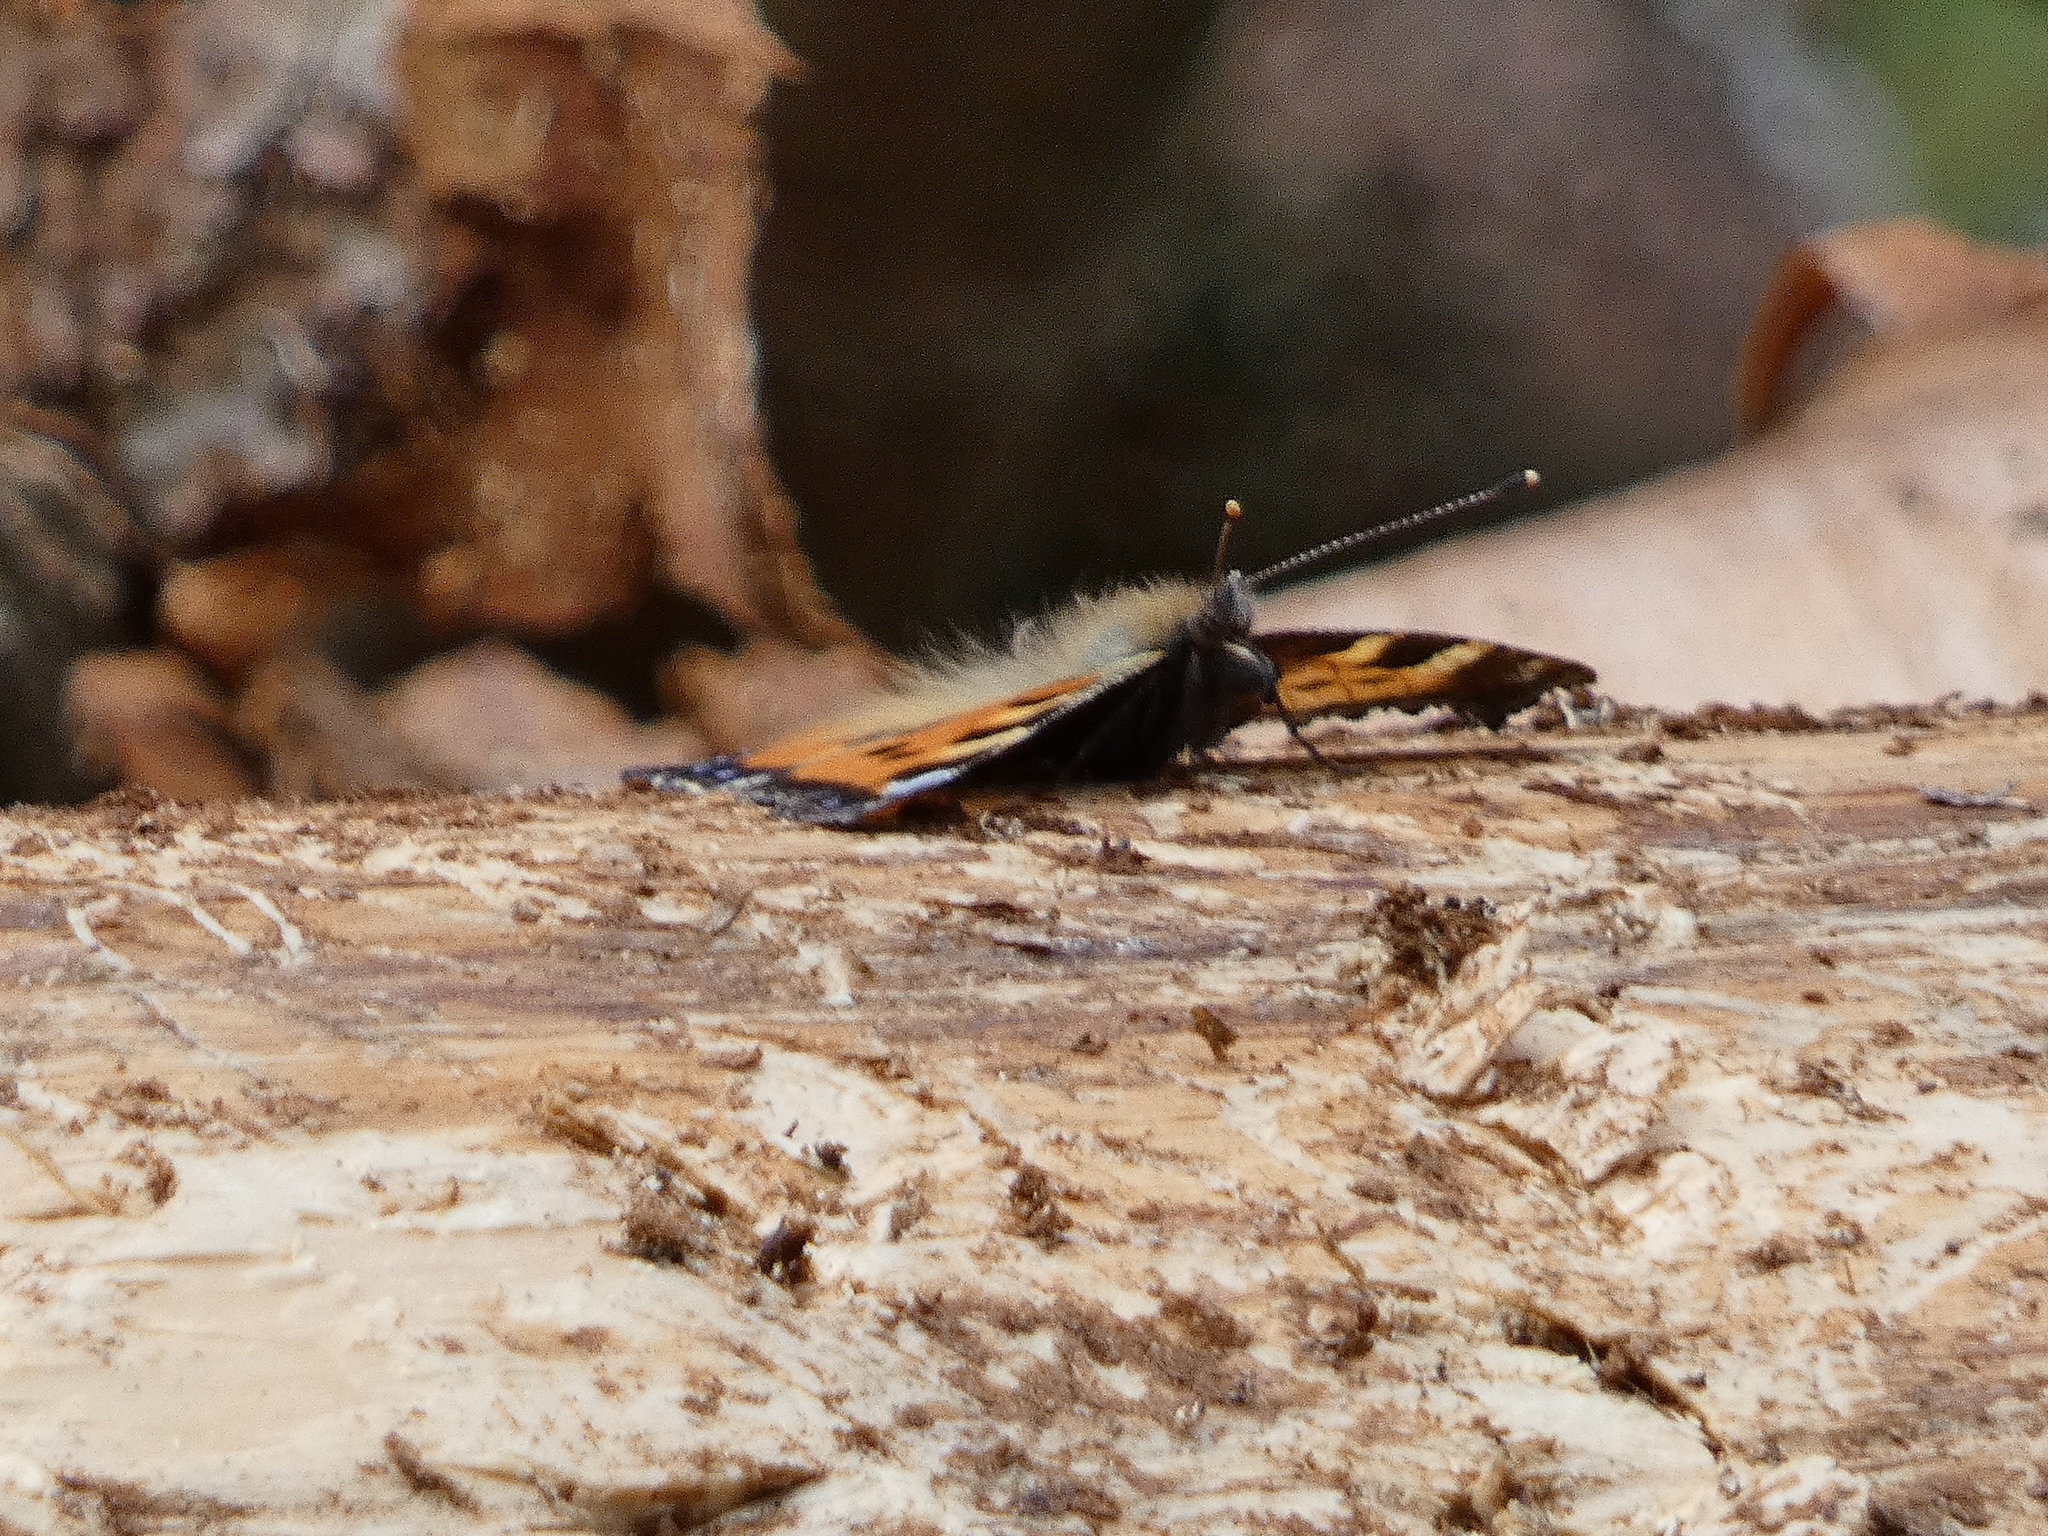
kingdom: Animalia
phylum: Arthropoda
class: Insecta
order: Lepidoptera
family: Nymphalidae
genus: Aglais
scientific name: Aglais urticae
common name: Small tortoiseshell
